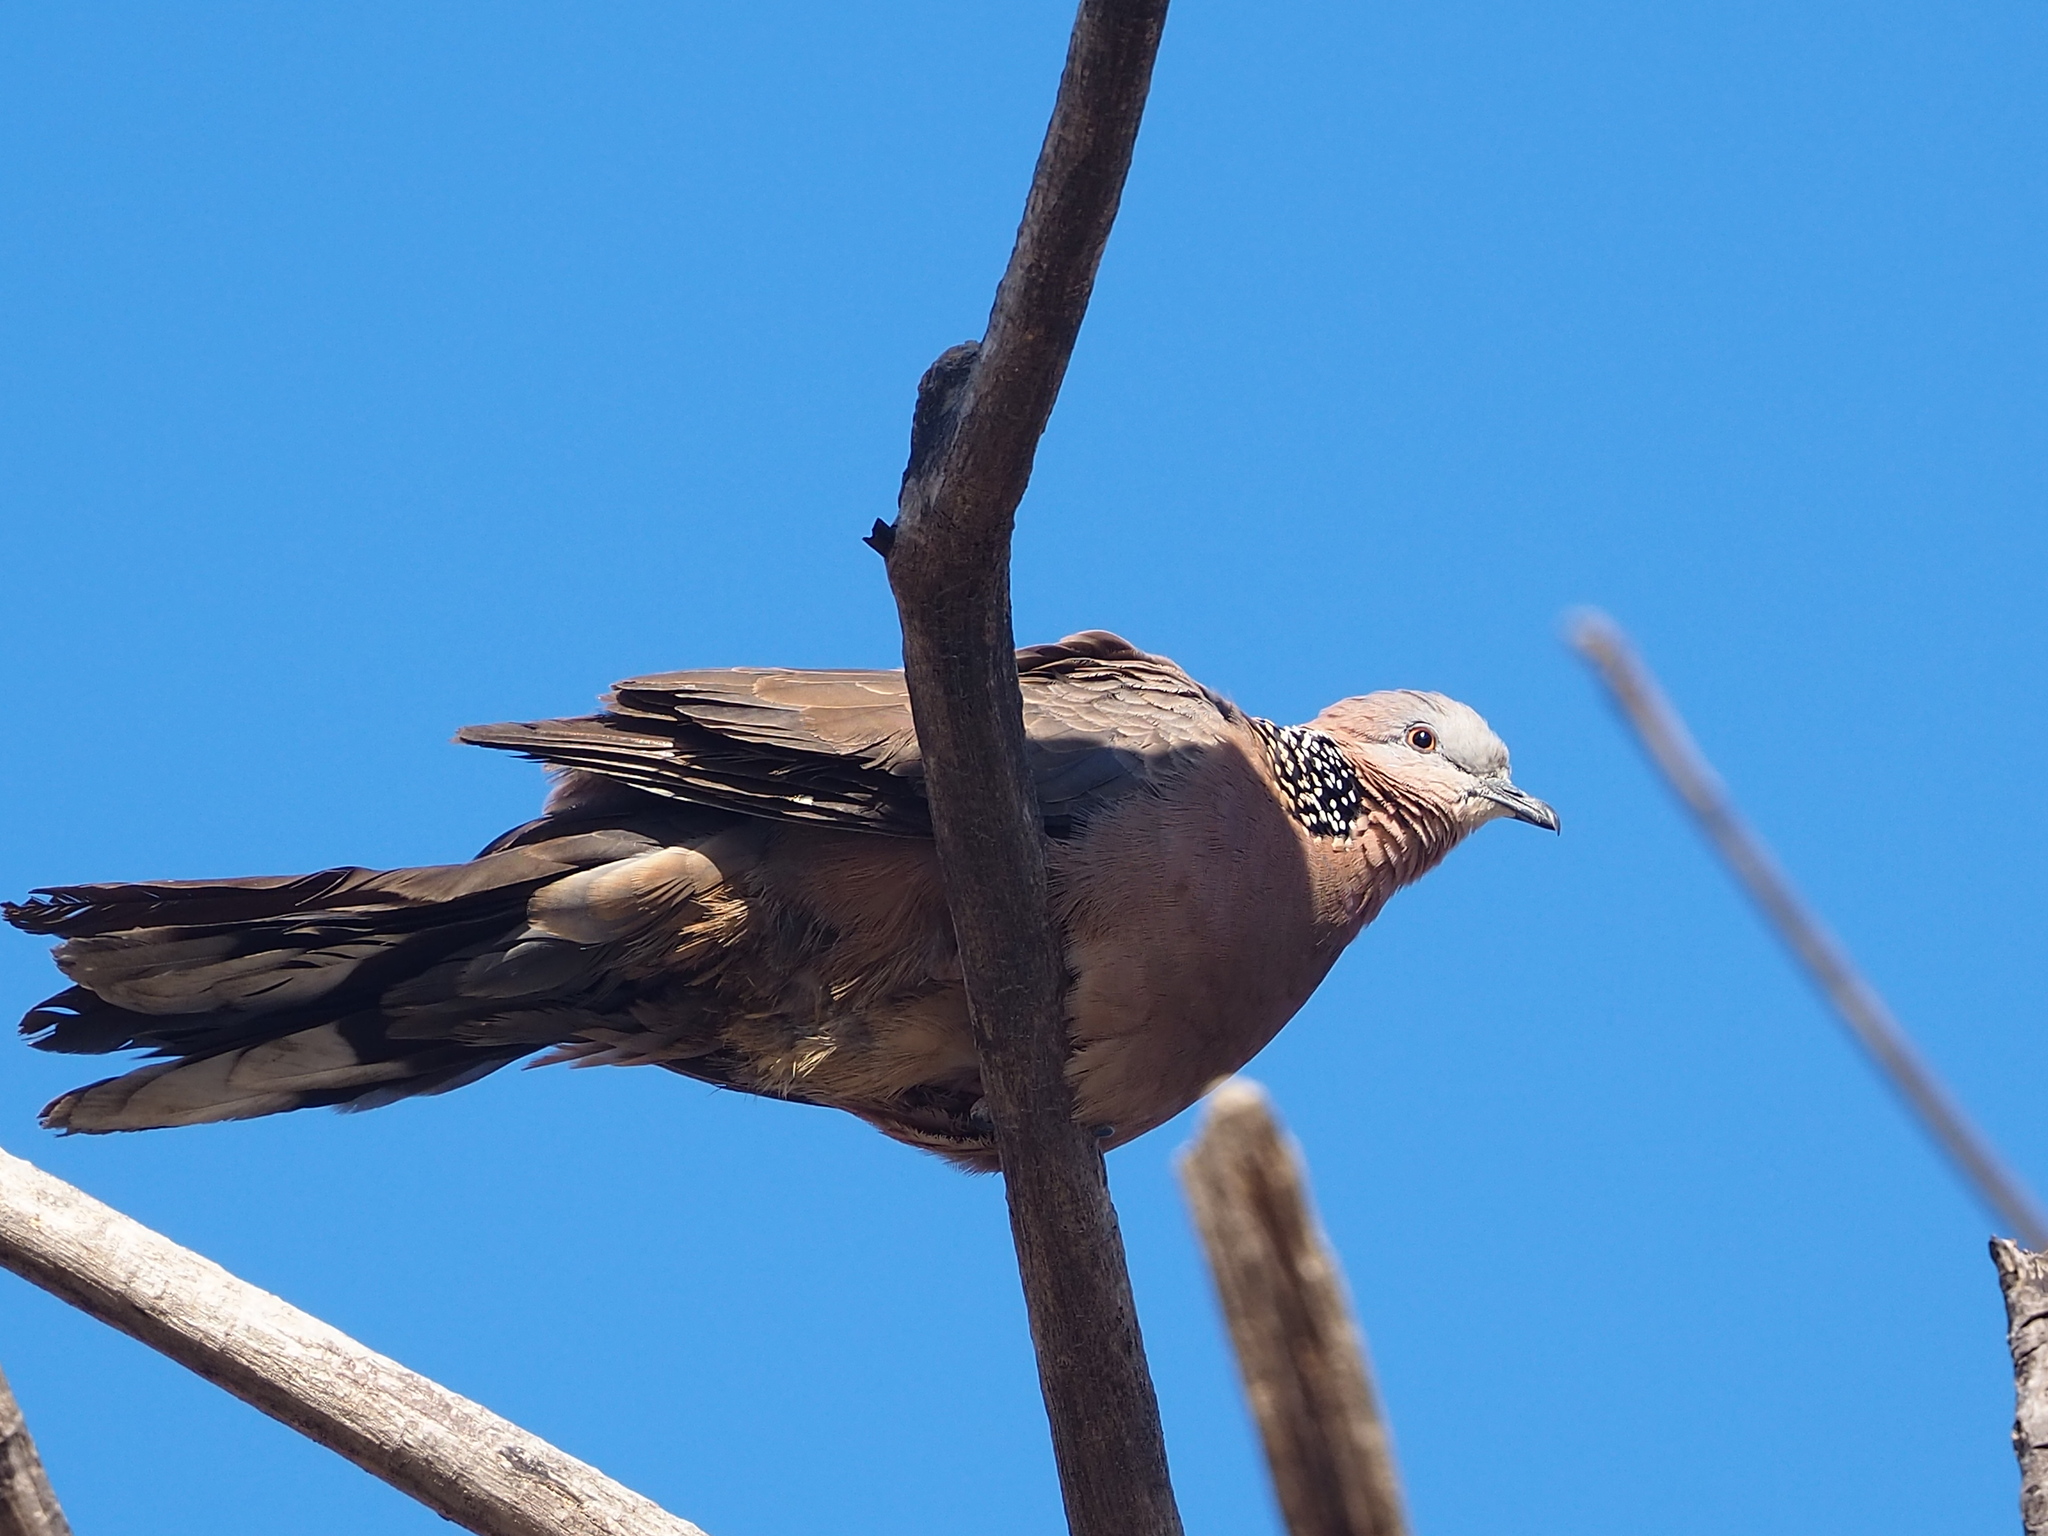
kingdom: Animalia
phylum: Chordata
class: Aves
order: Columbiformes
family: Columbidae
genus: Spilopelia
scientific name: Spilopelia chinensis
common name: Spotted dove
